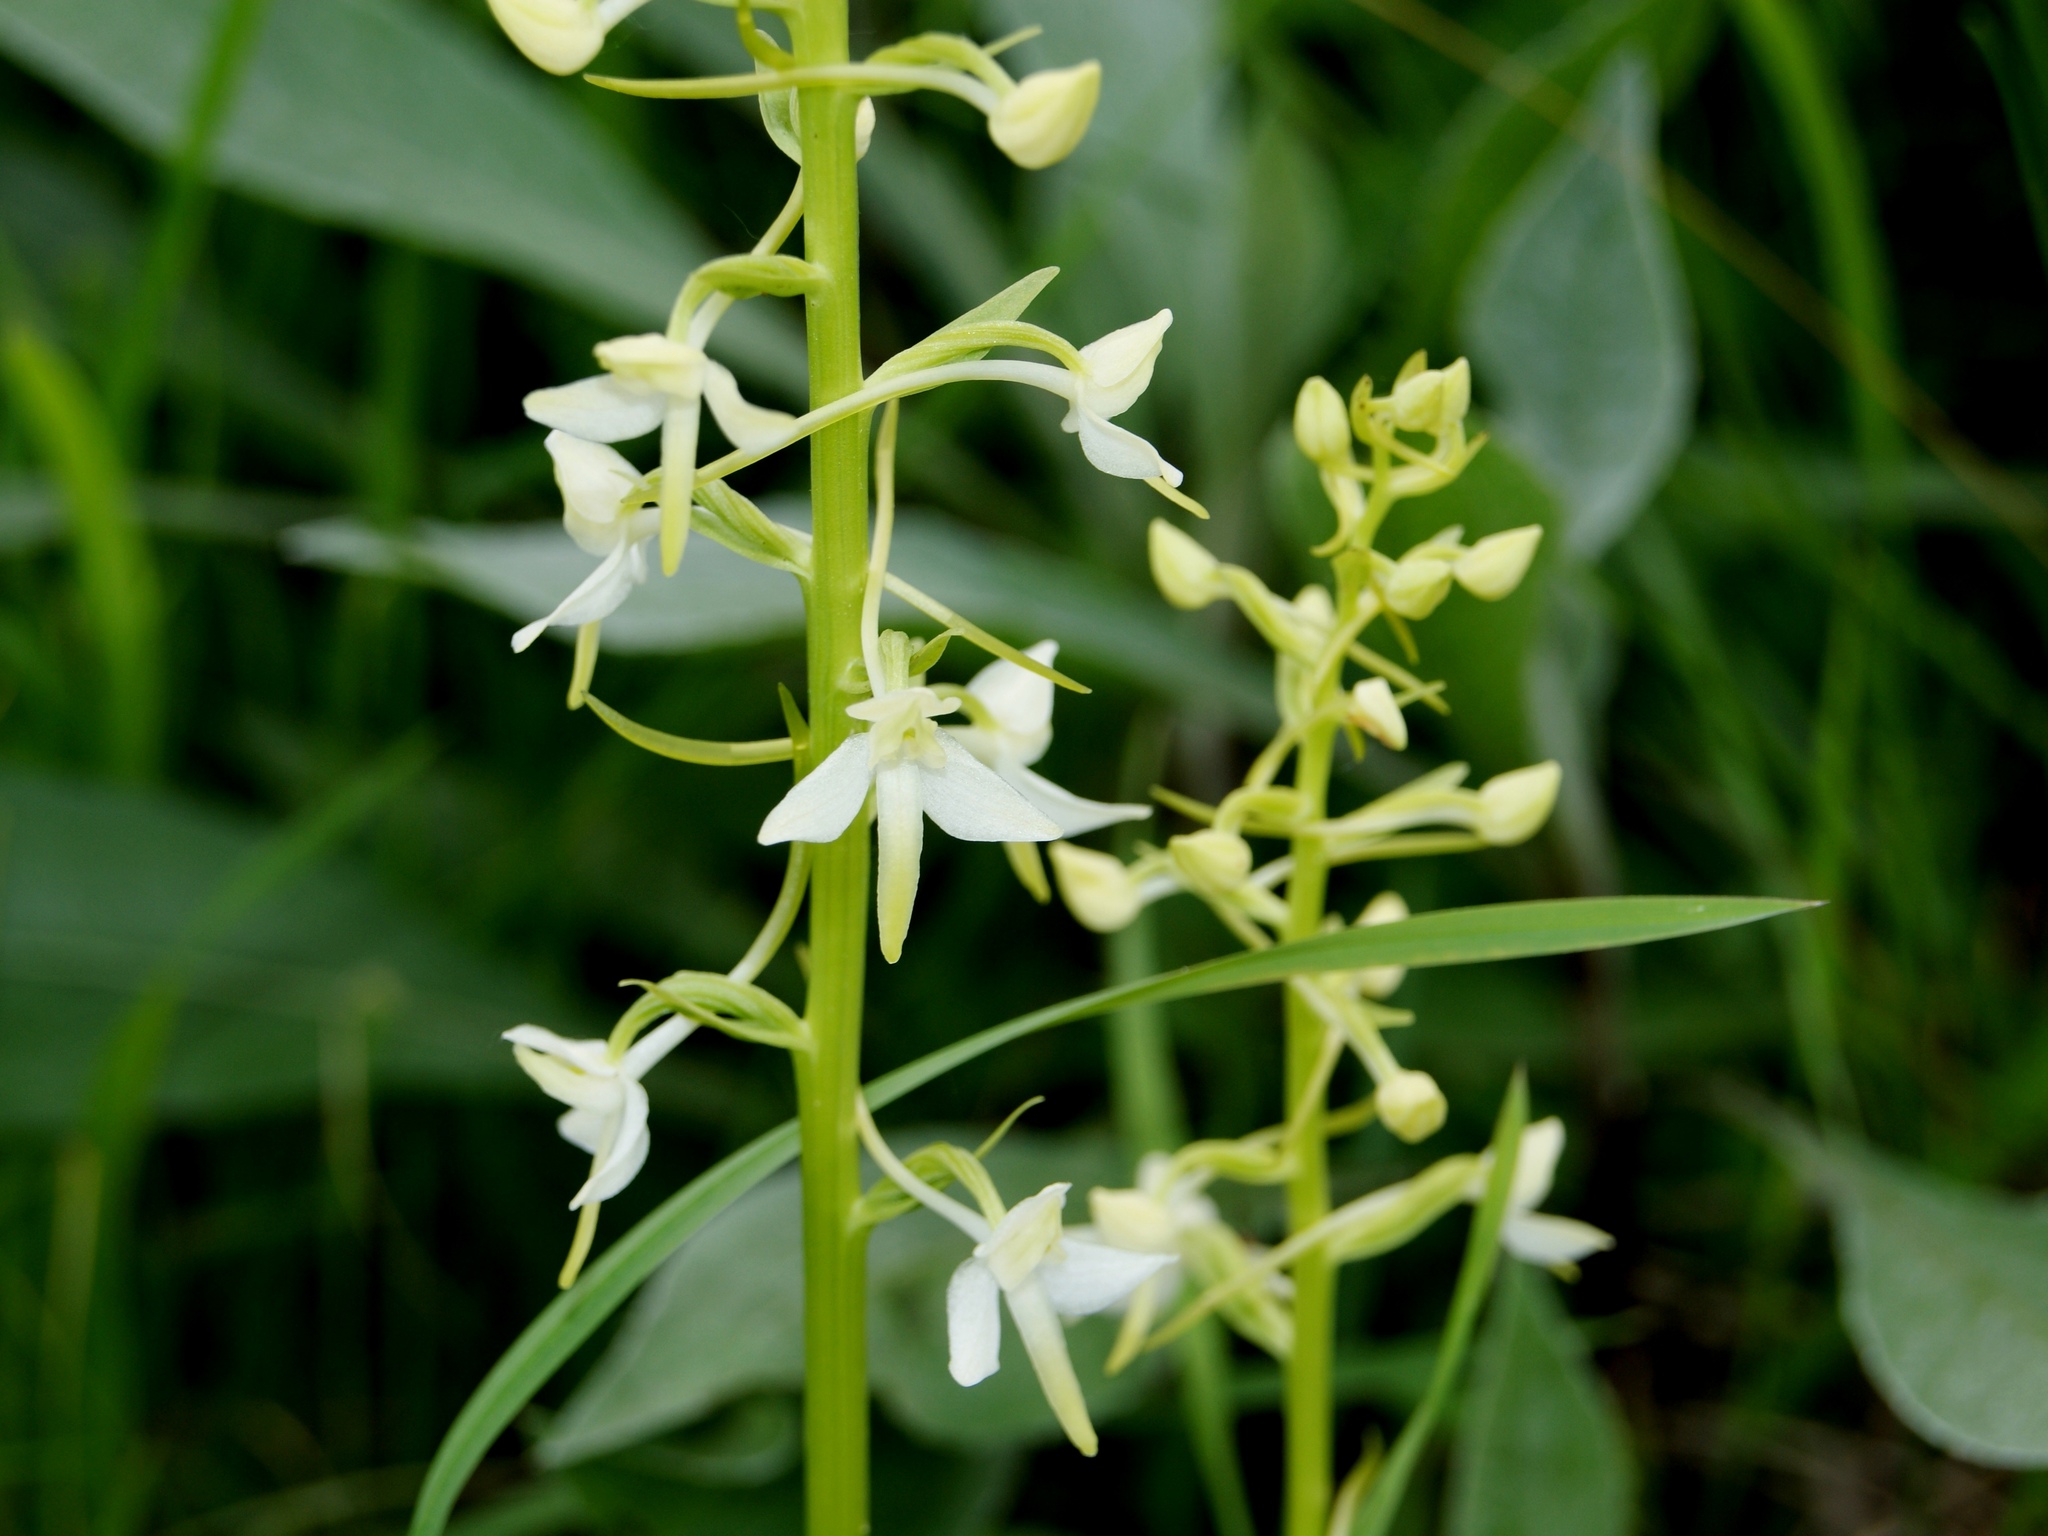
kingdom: Plantae
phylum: Tracheophyta
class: Liliopsida
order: Asparagales
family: Orchidaceae
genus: Platanthera
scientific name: Platanthera bifolia
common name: Lesser butterfly-orchid
